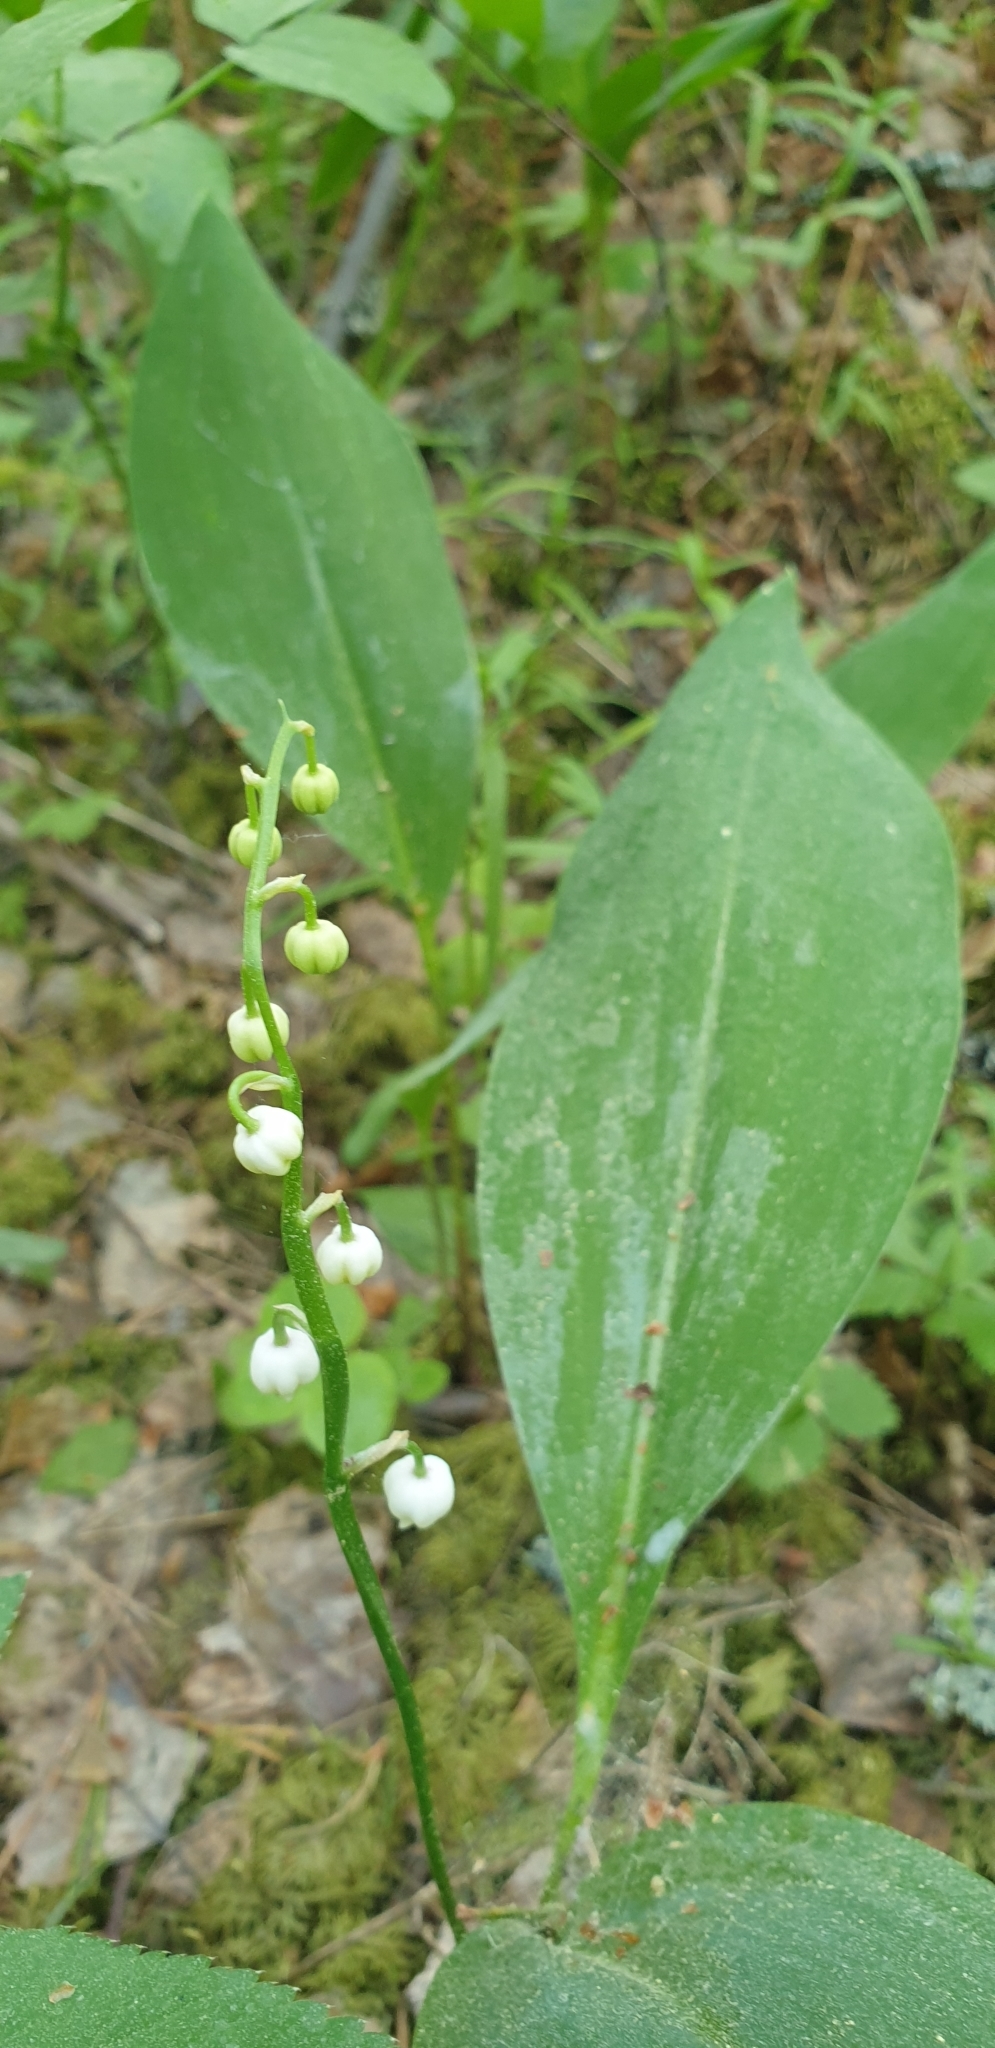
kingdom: Plantae
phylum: Tracheophyta
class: Liliopsida
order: Asparagales
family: Asparagaceae
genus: Convallaria
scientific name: Convallaria majalis
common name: Lily-of-the-valley
